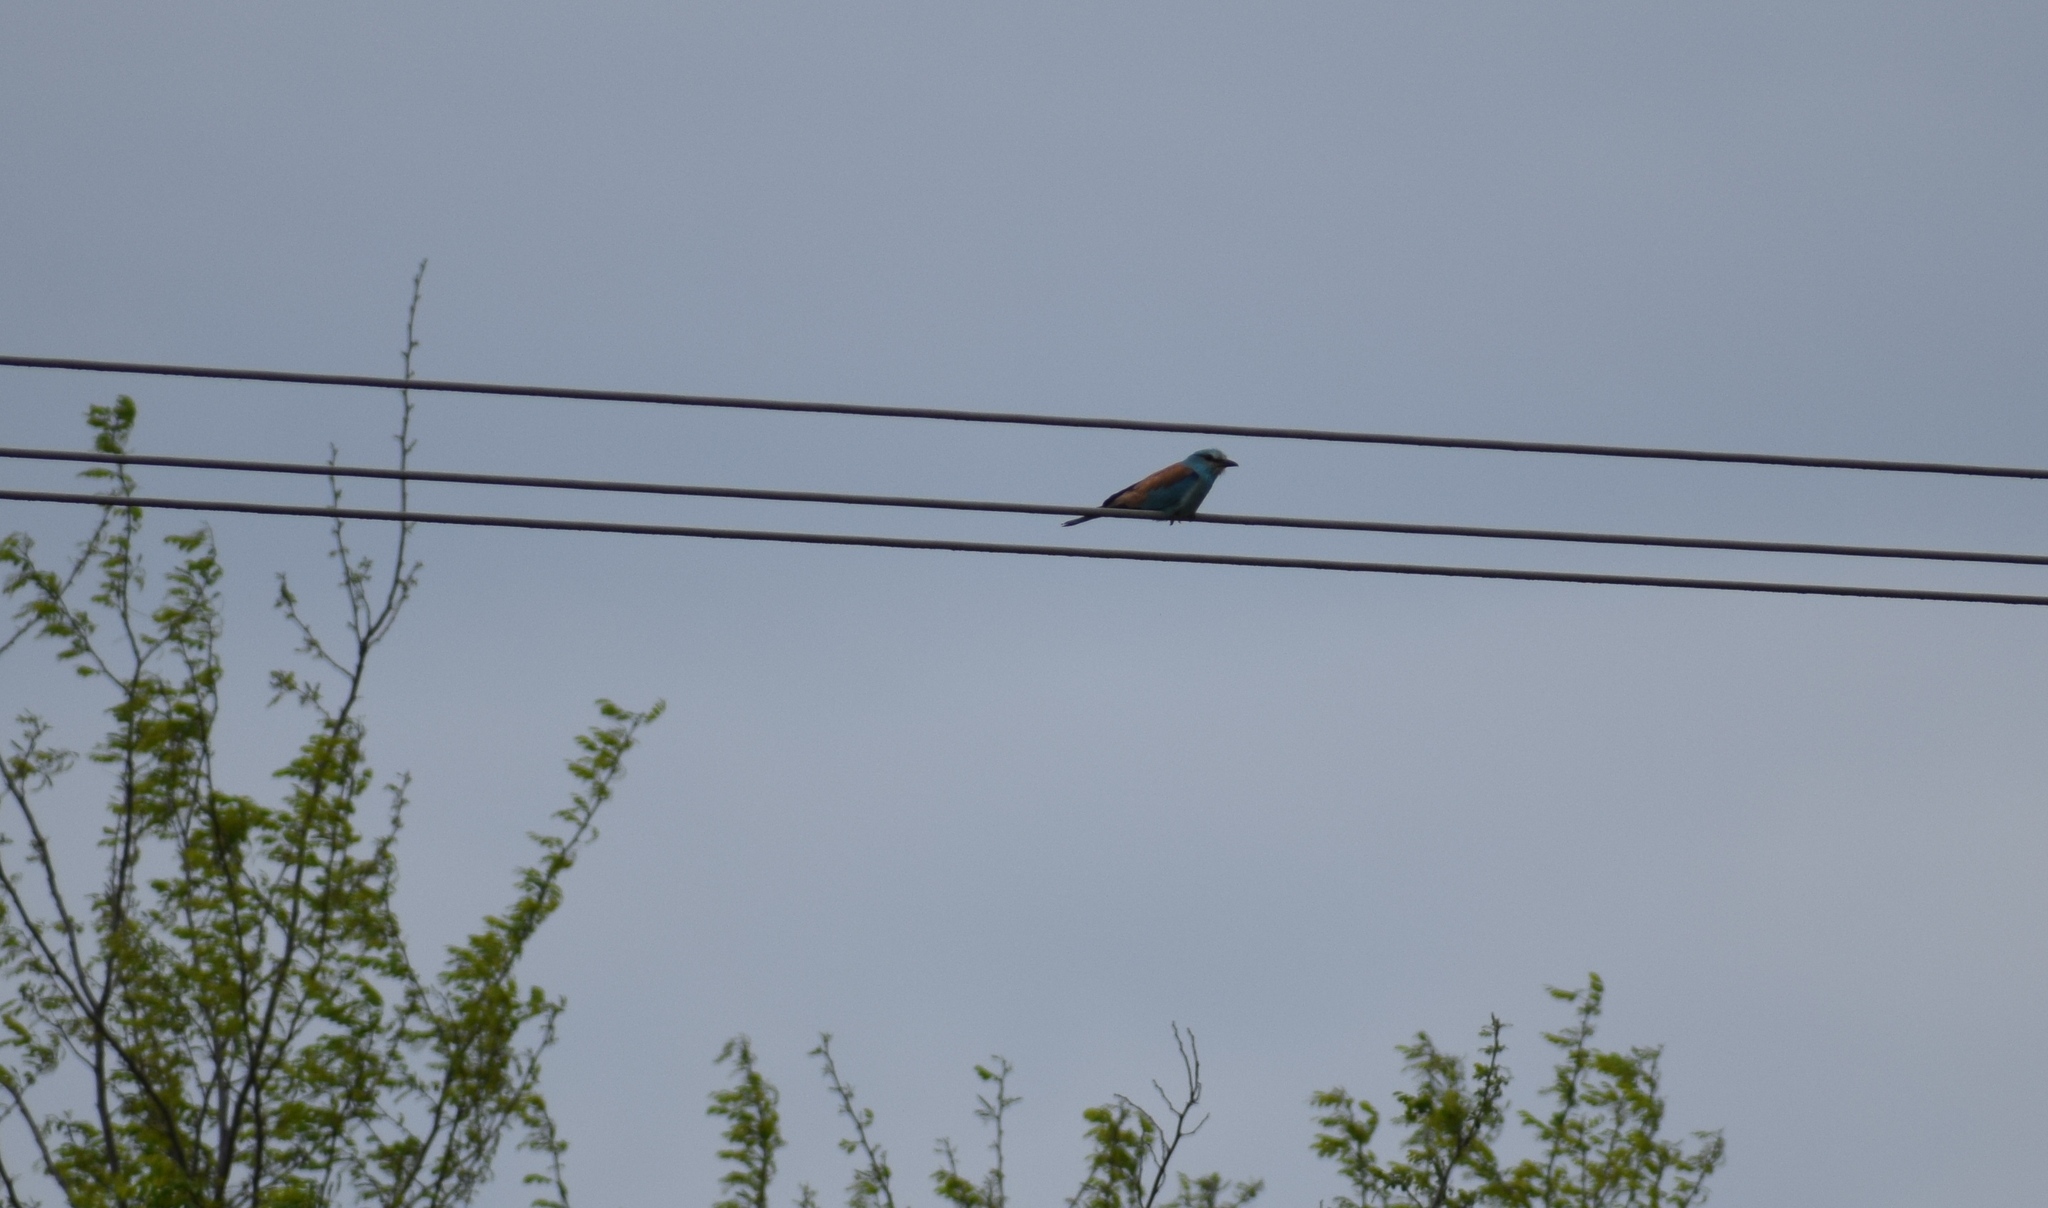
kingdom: Animalia
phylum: Chordata
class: Aves
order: Coraciiformes
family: Coraciidae
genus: Coracias
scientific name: Coracias garrulus
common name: European roller
